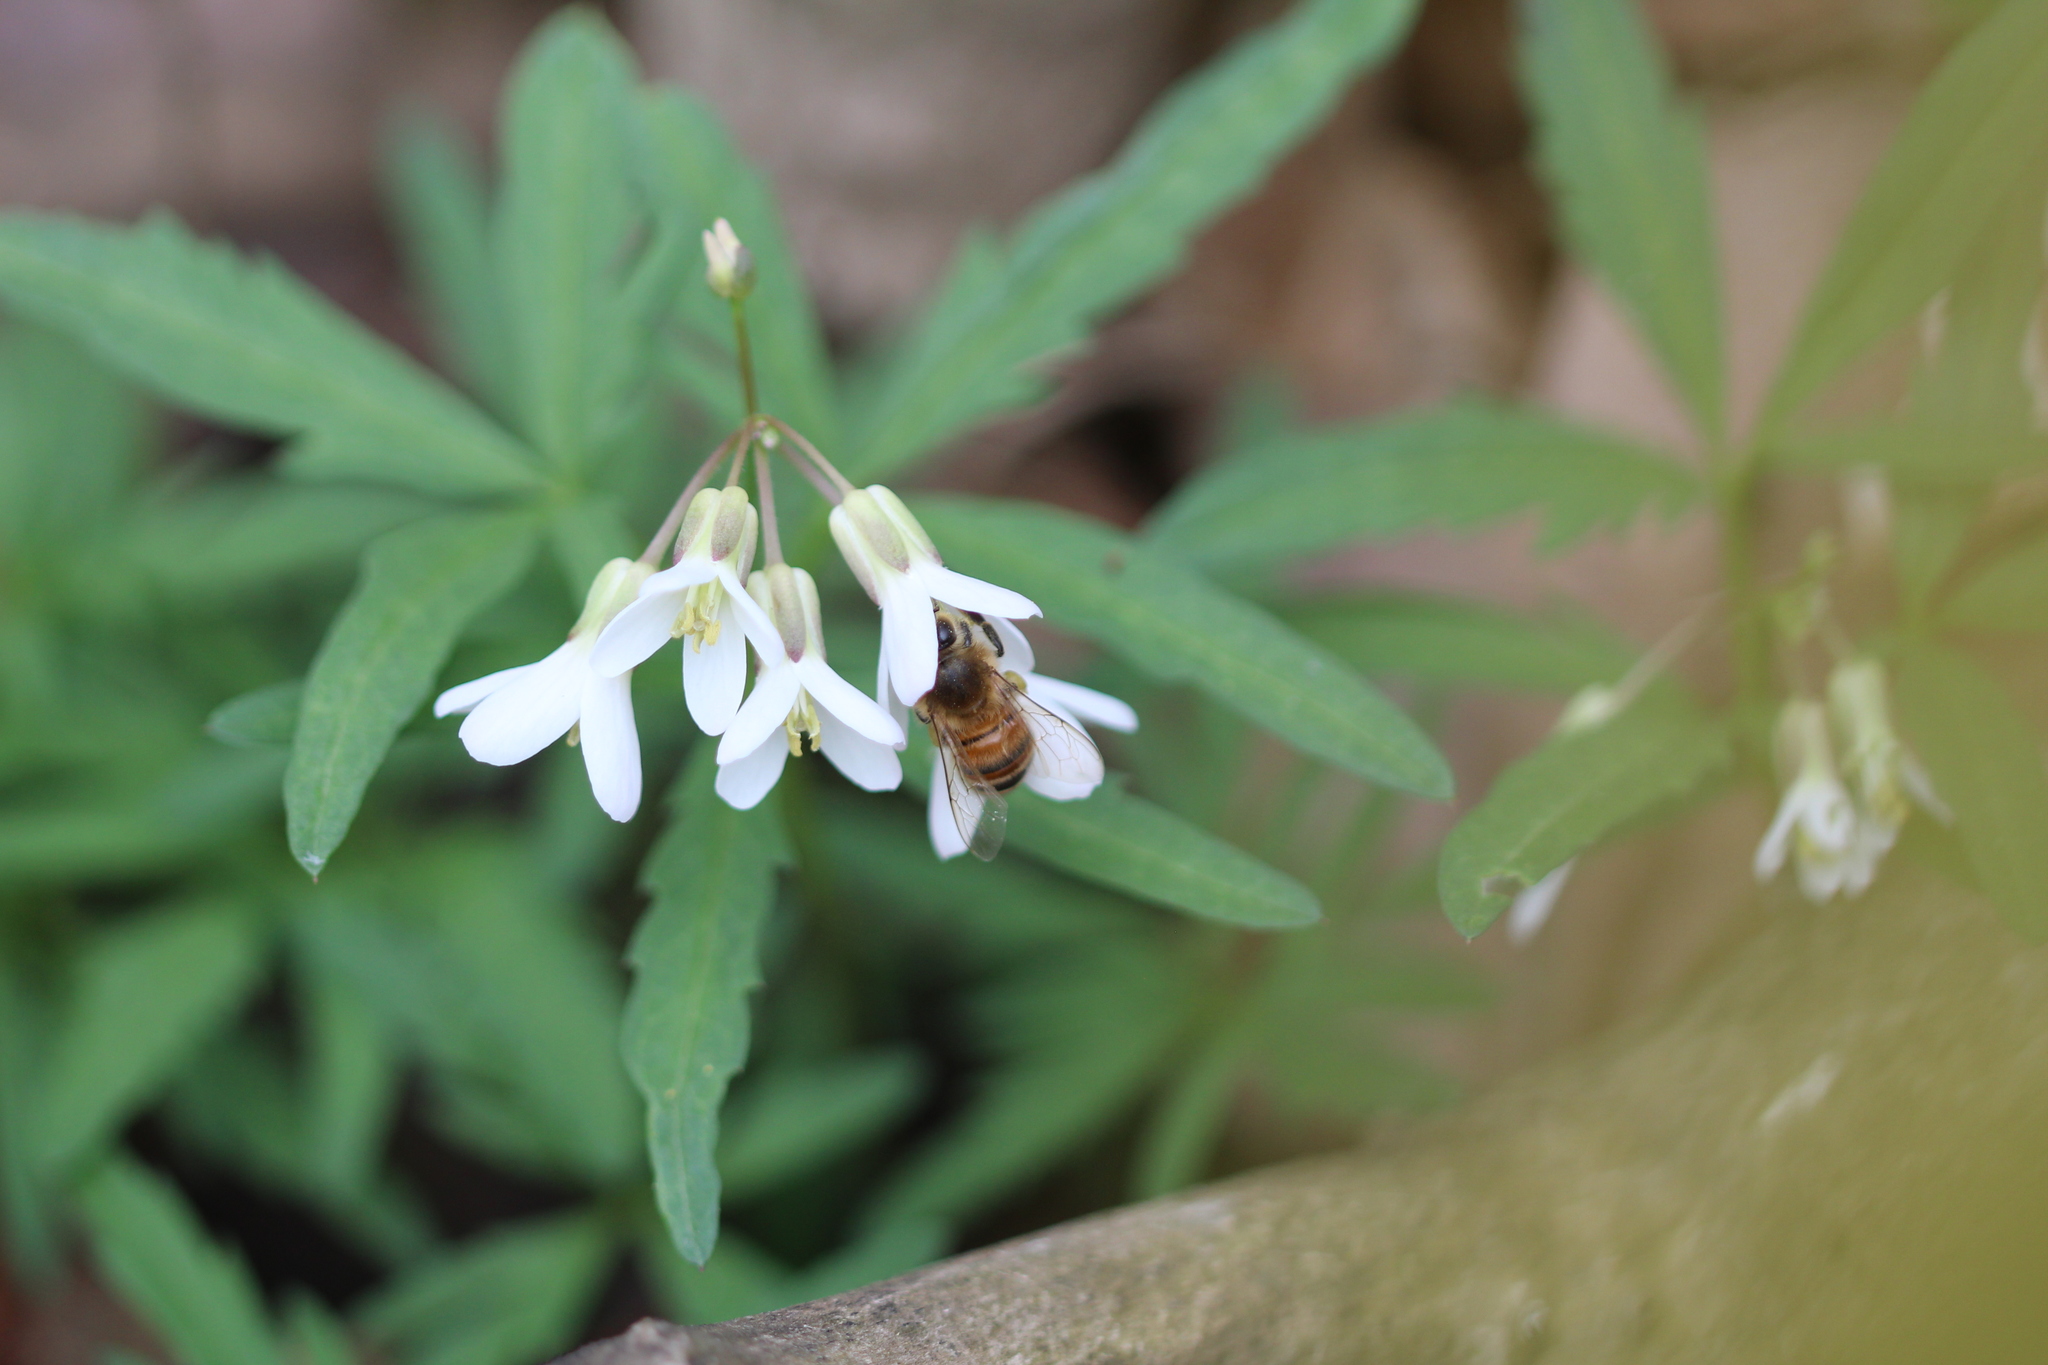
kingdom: Animalia
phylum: Arthropoda
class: Insecta
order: Hymenoptera
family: Apidae
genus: Apis
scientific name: Apis mellifera
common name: Honey bee
